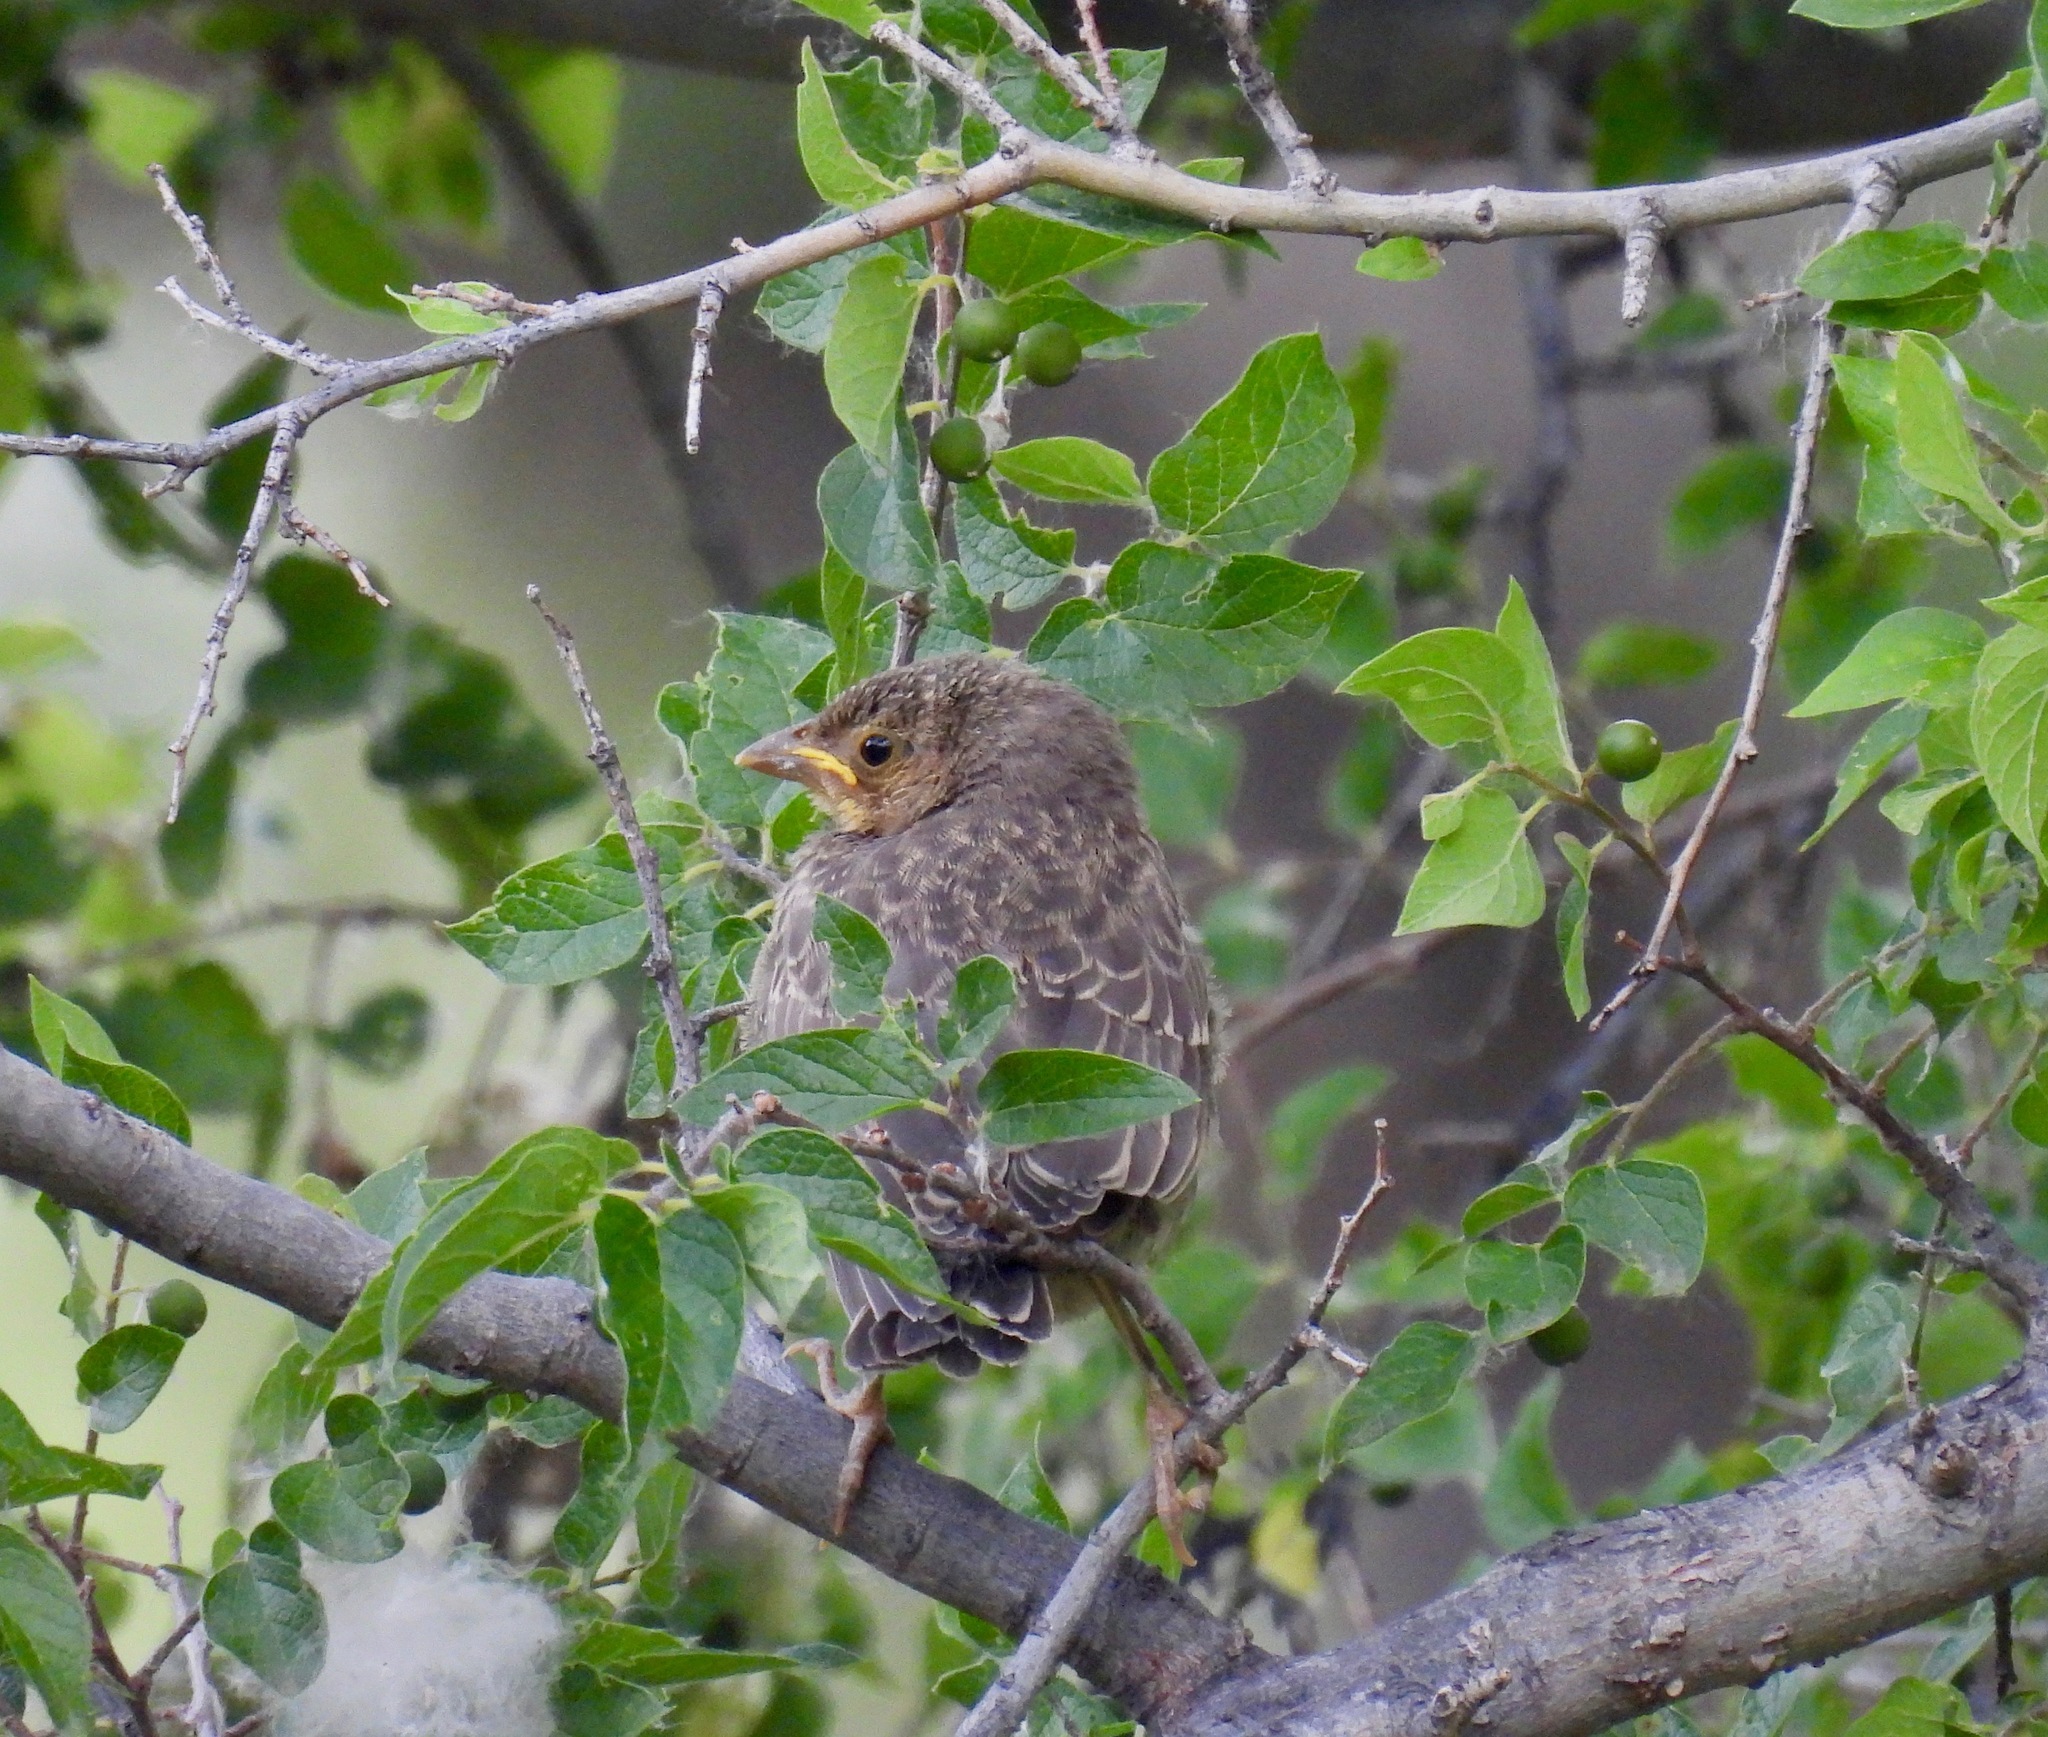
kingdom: Animalia
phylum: Chordata
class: Aves
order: Passeriformes
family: Icteridae
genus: Molothrus
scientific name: Molothrus aeneus
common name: Bronzed cowbird
